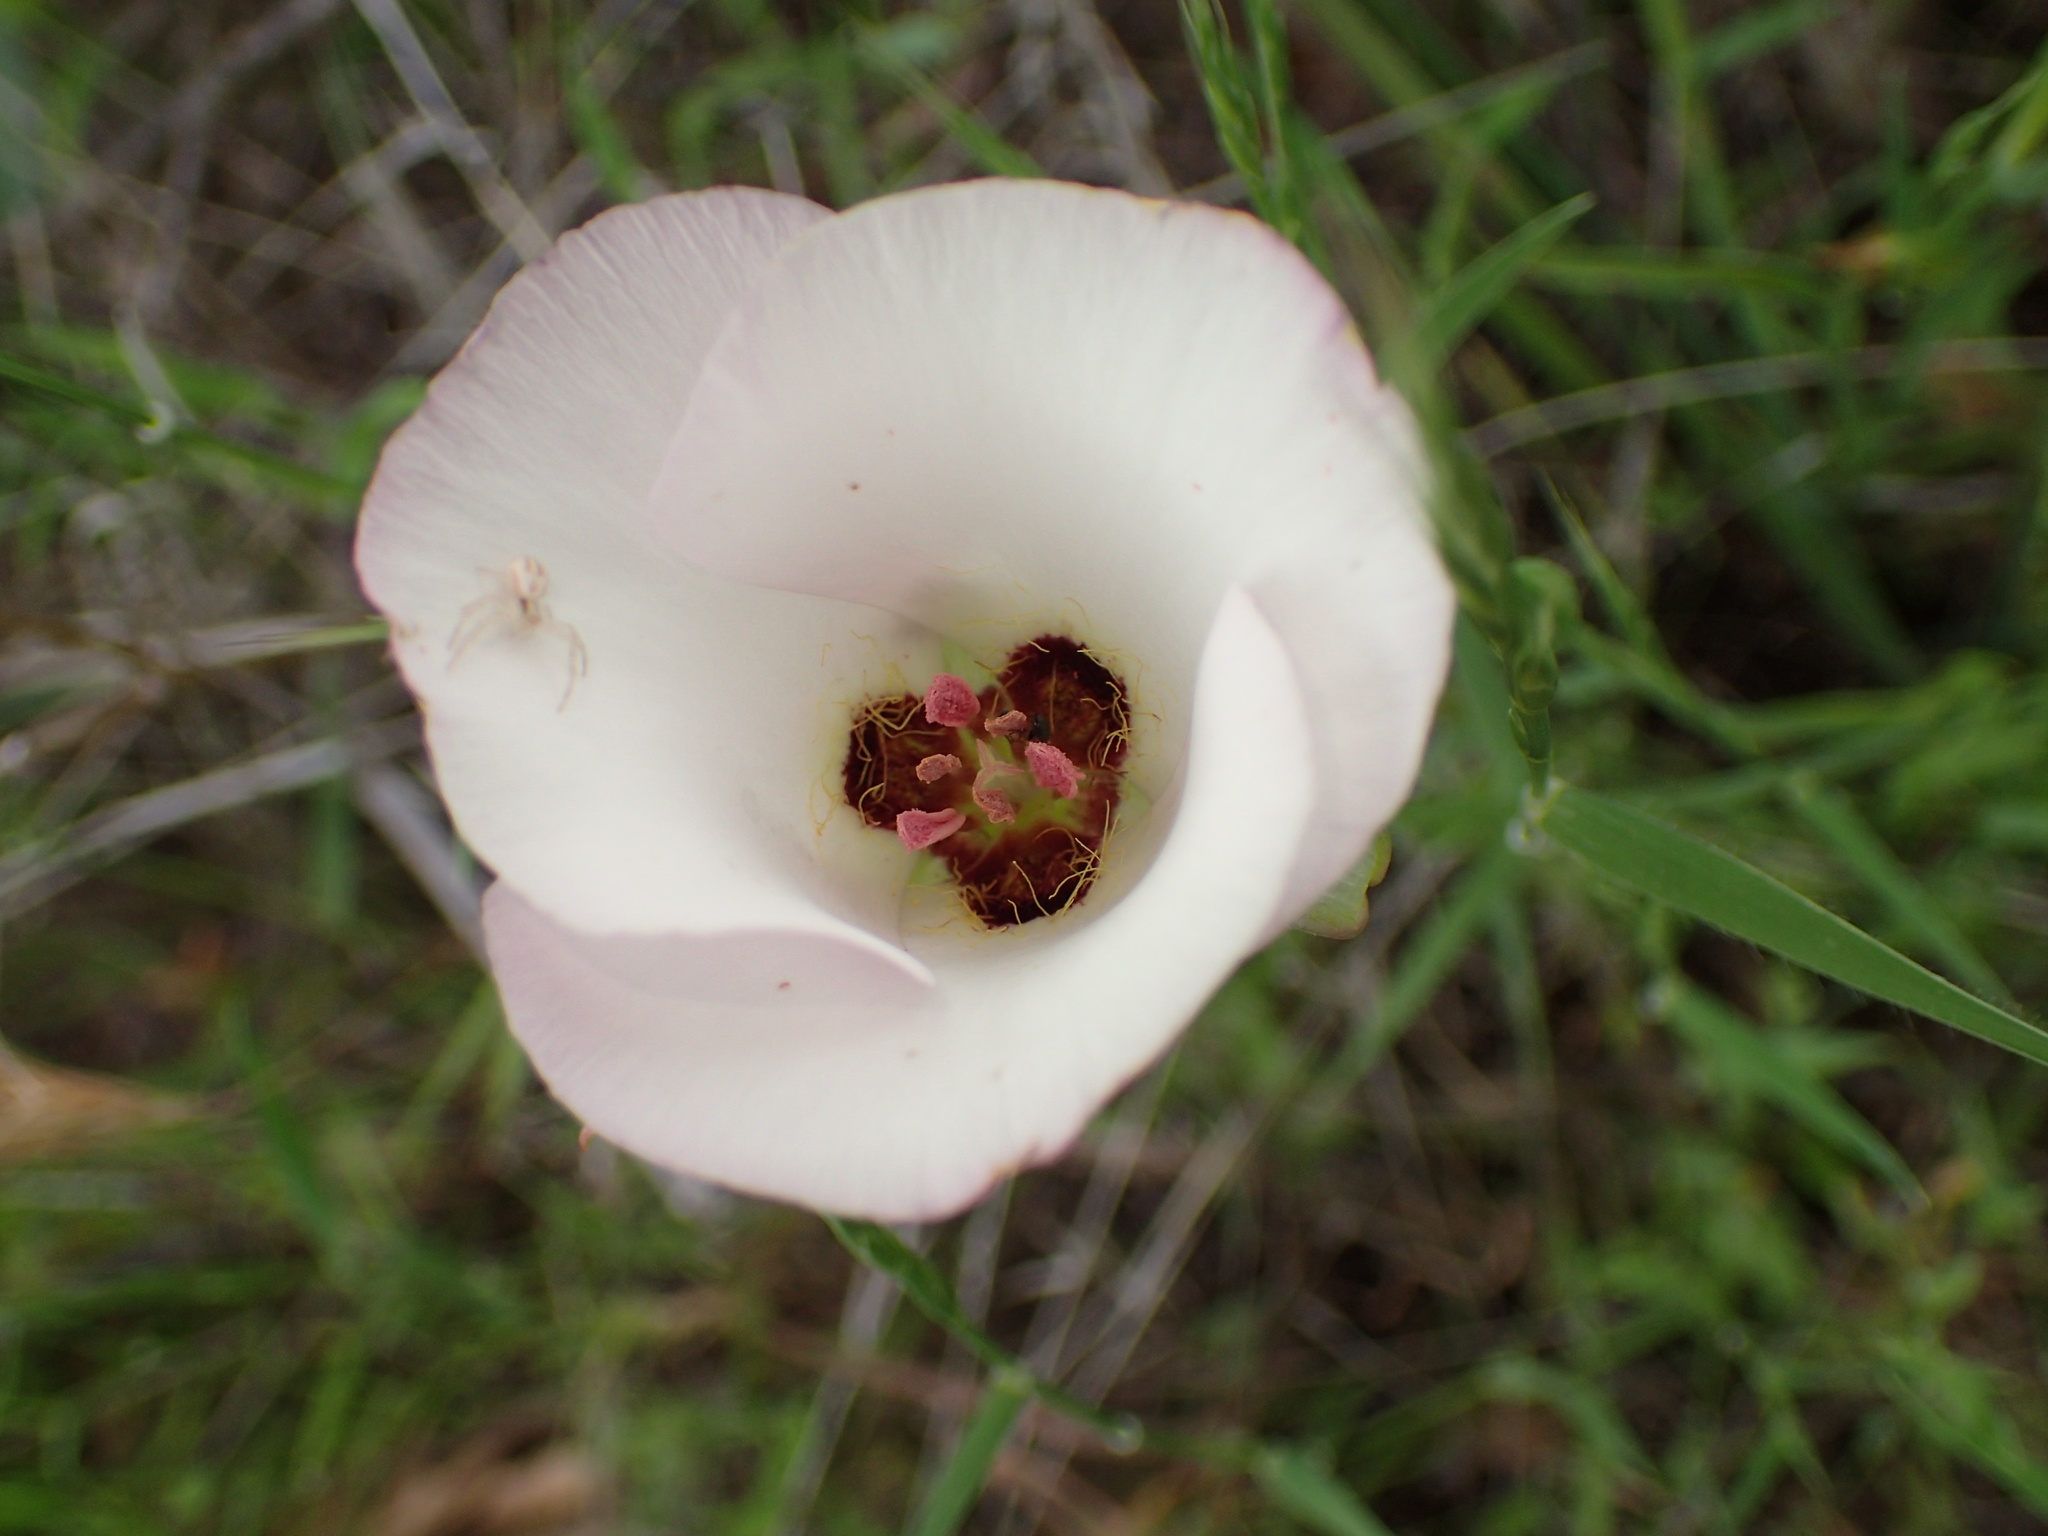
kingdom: Plantae
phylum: Tracheophyta
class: Liliopsida
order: Liliales
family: Liliaceae
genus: Calochortus
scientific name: Calochortus catalinae
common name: Catalina mariposa-lily
